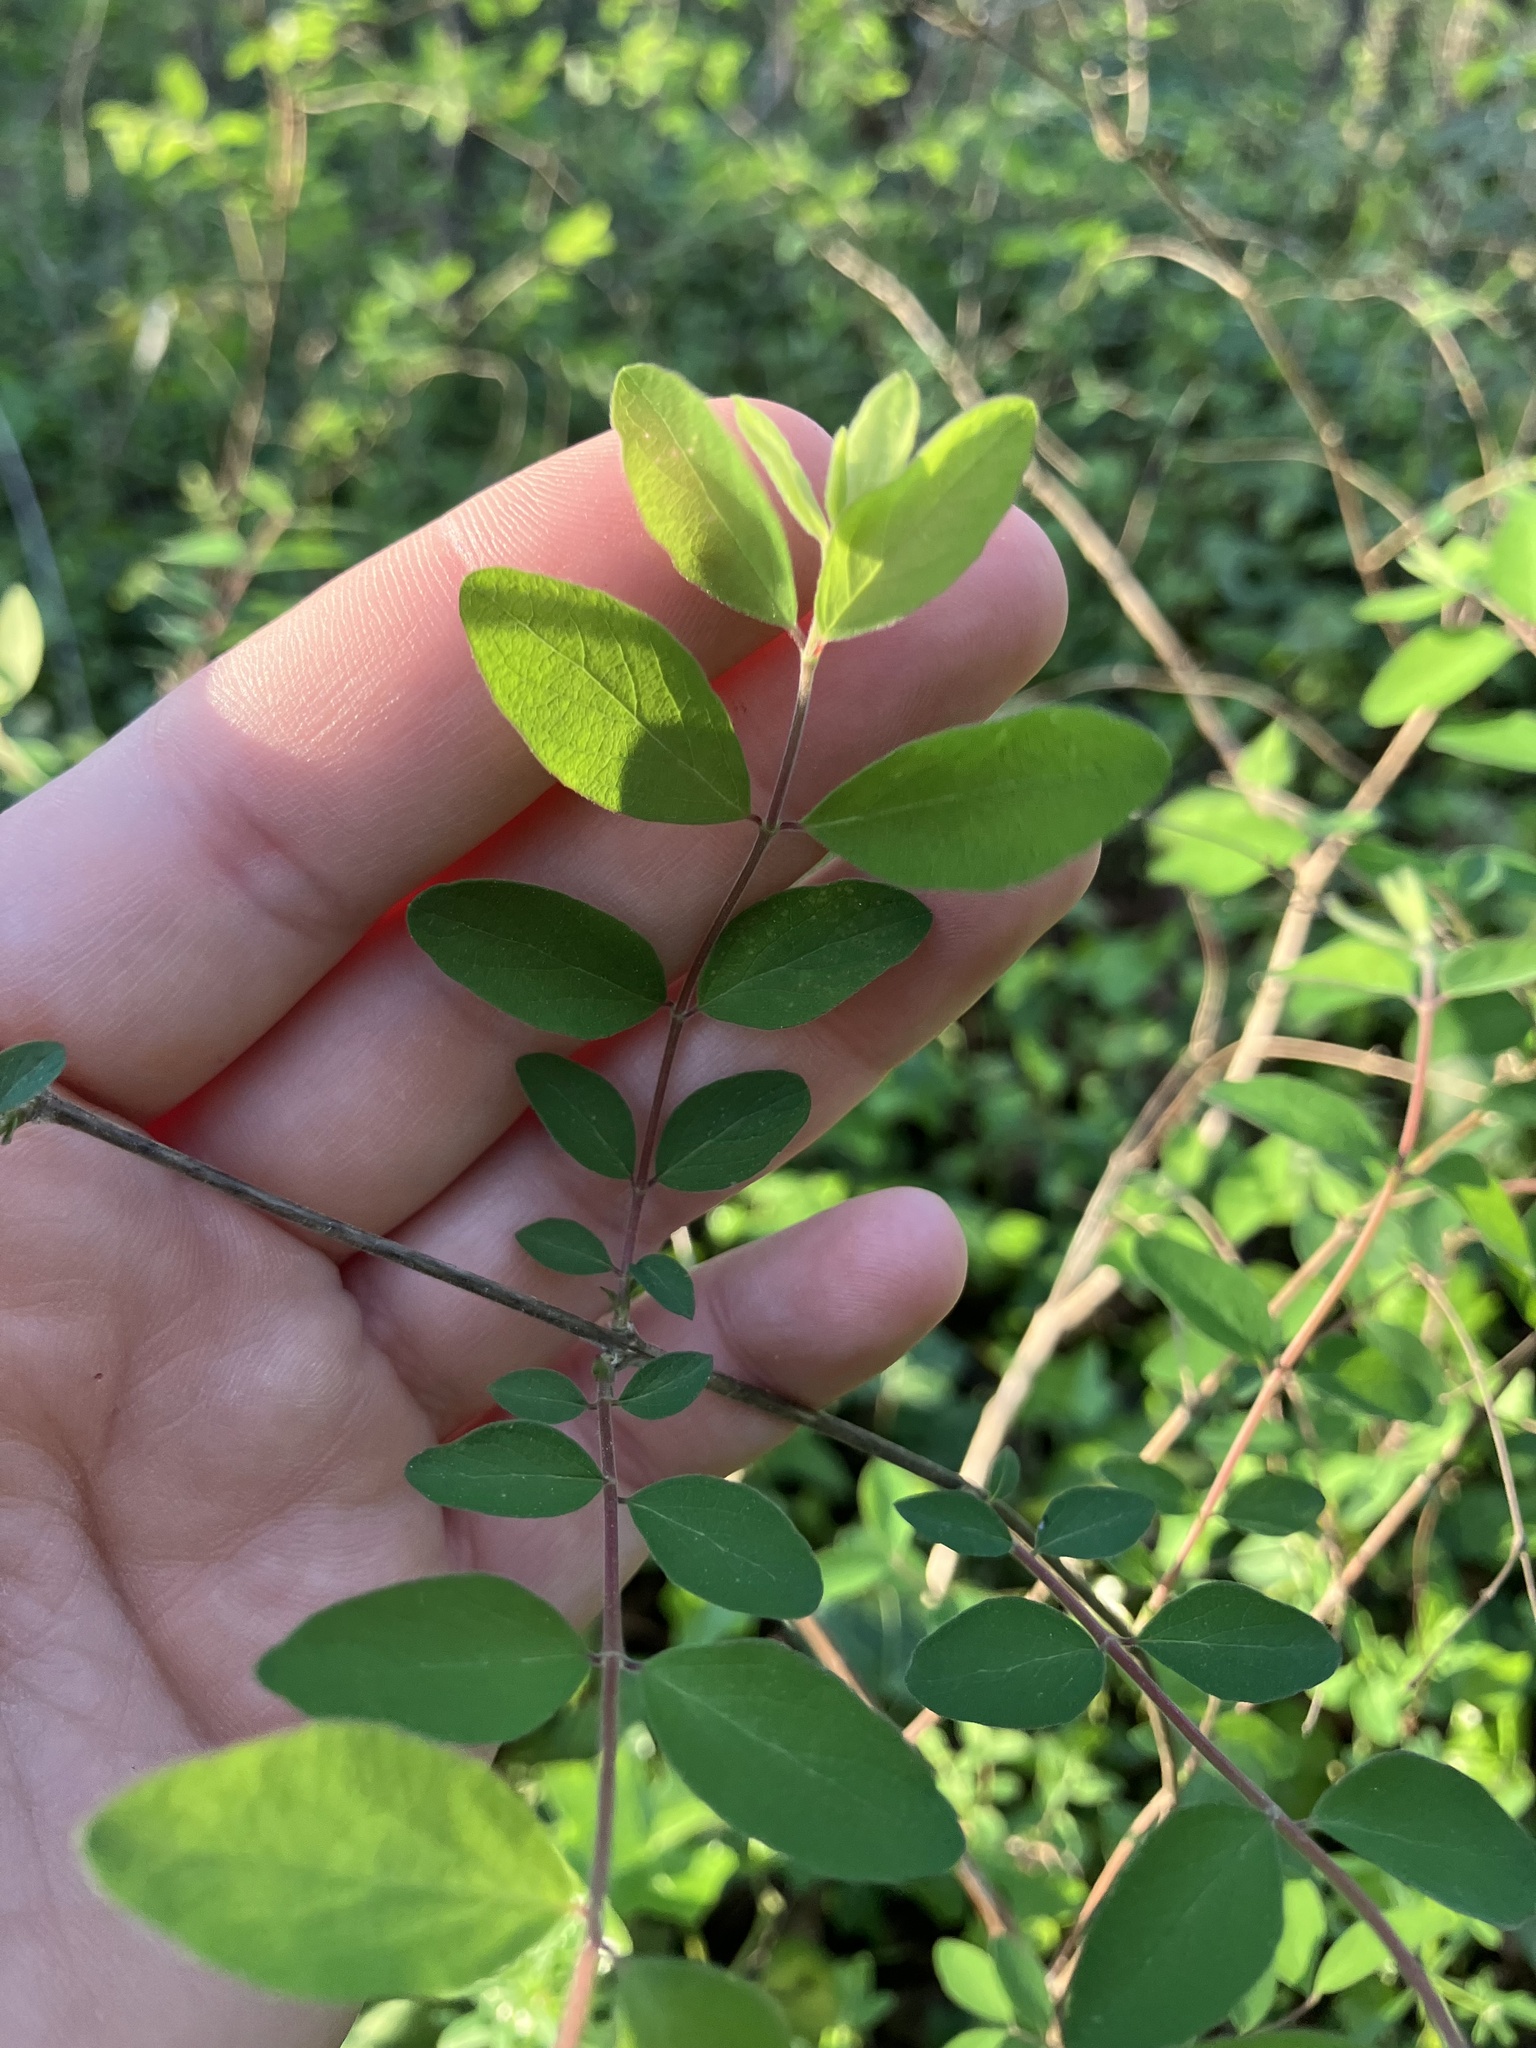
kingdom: Plantae
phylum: Tracheophyta
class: Magnoliopsida
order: Dipsacales
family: Caprifoliaceae
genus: Symphoricarpos
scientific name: Symphoricarpos orbiculatus
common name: Coralberry
